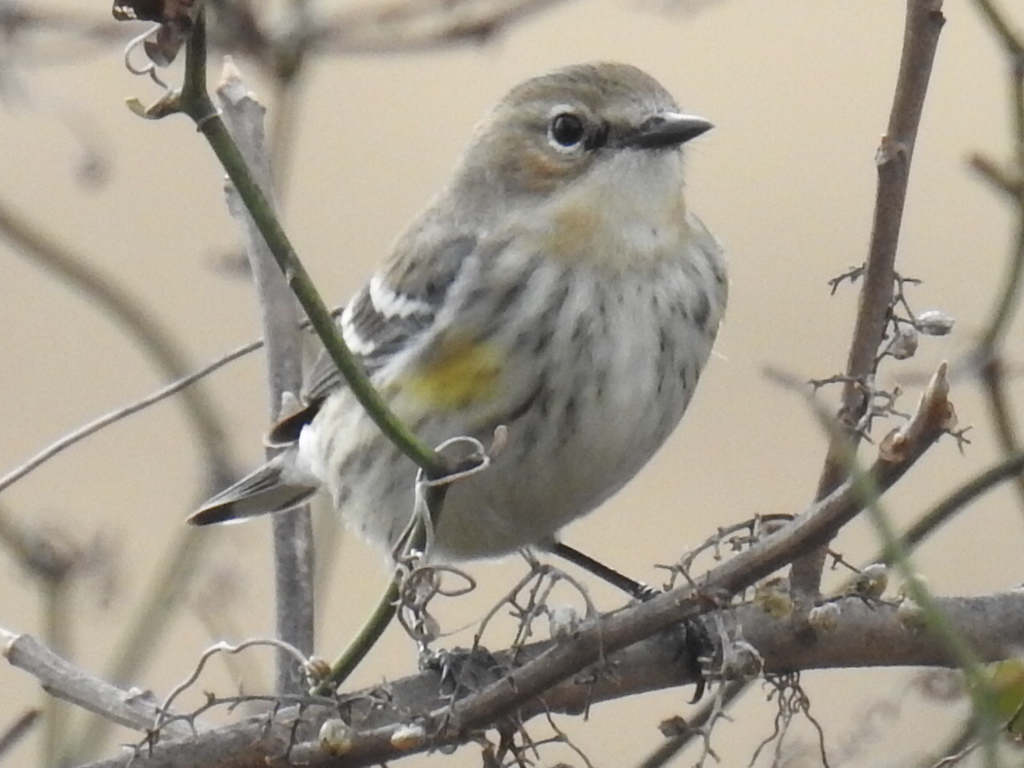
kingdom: Animalia
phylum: Chordata
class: Aves
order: Passeriformes
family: Parulidae
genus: Setophaga
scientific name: Setophaga coronata
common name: Myrtle warbler
